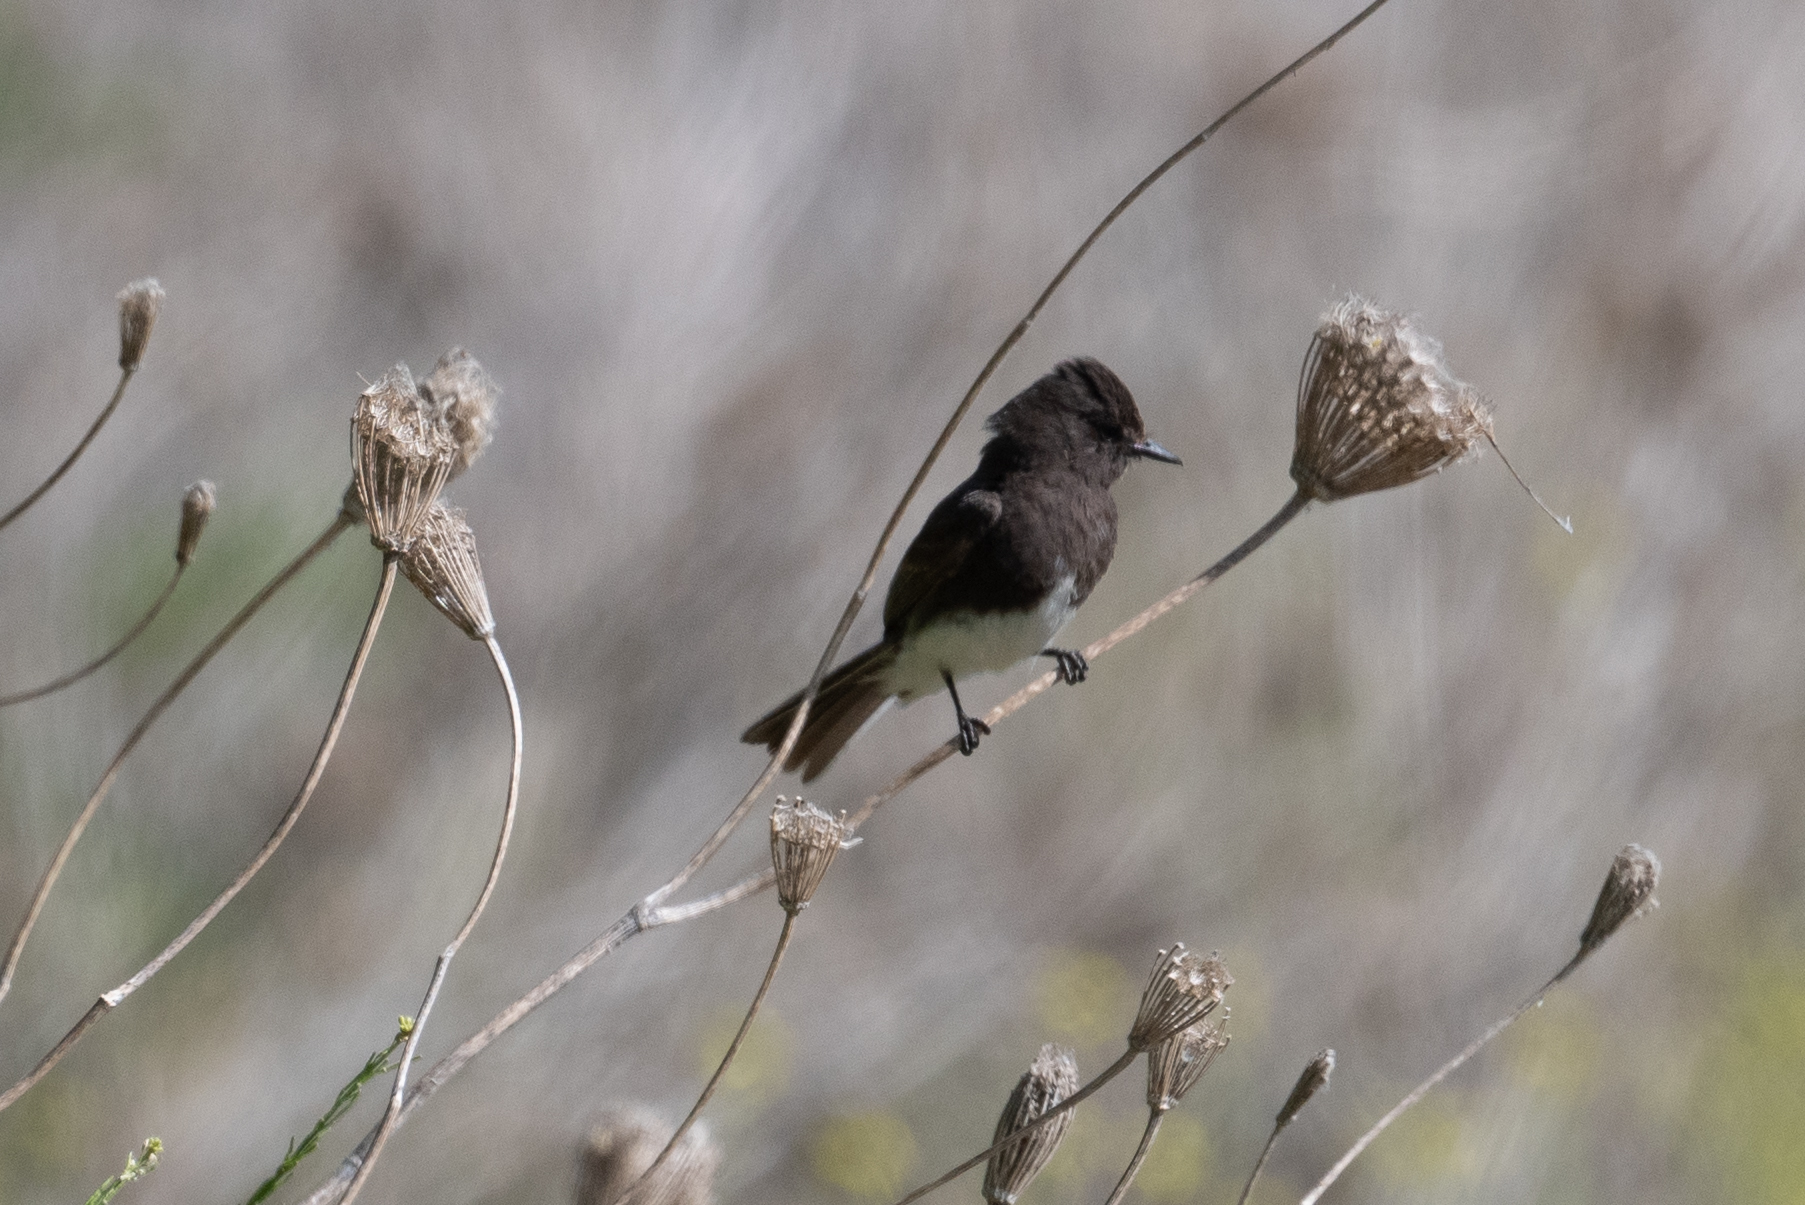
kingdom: Animalia
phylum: Chordata
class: Aves
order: Passeriformes
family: Tyrannidae
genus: Sayornis
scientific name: Sayornis nigricans
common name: Black phoebe
